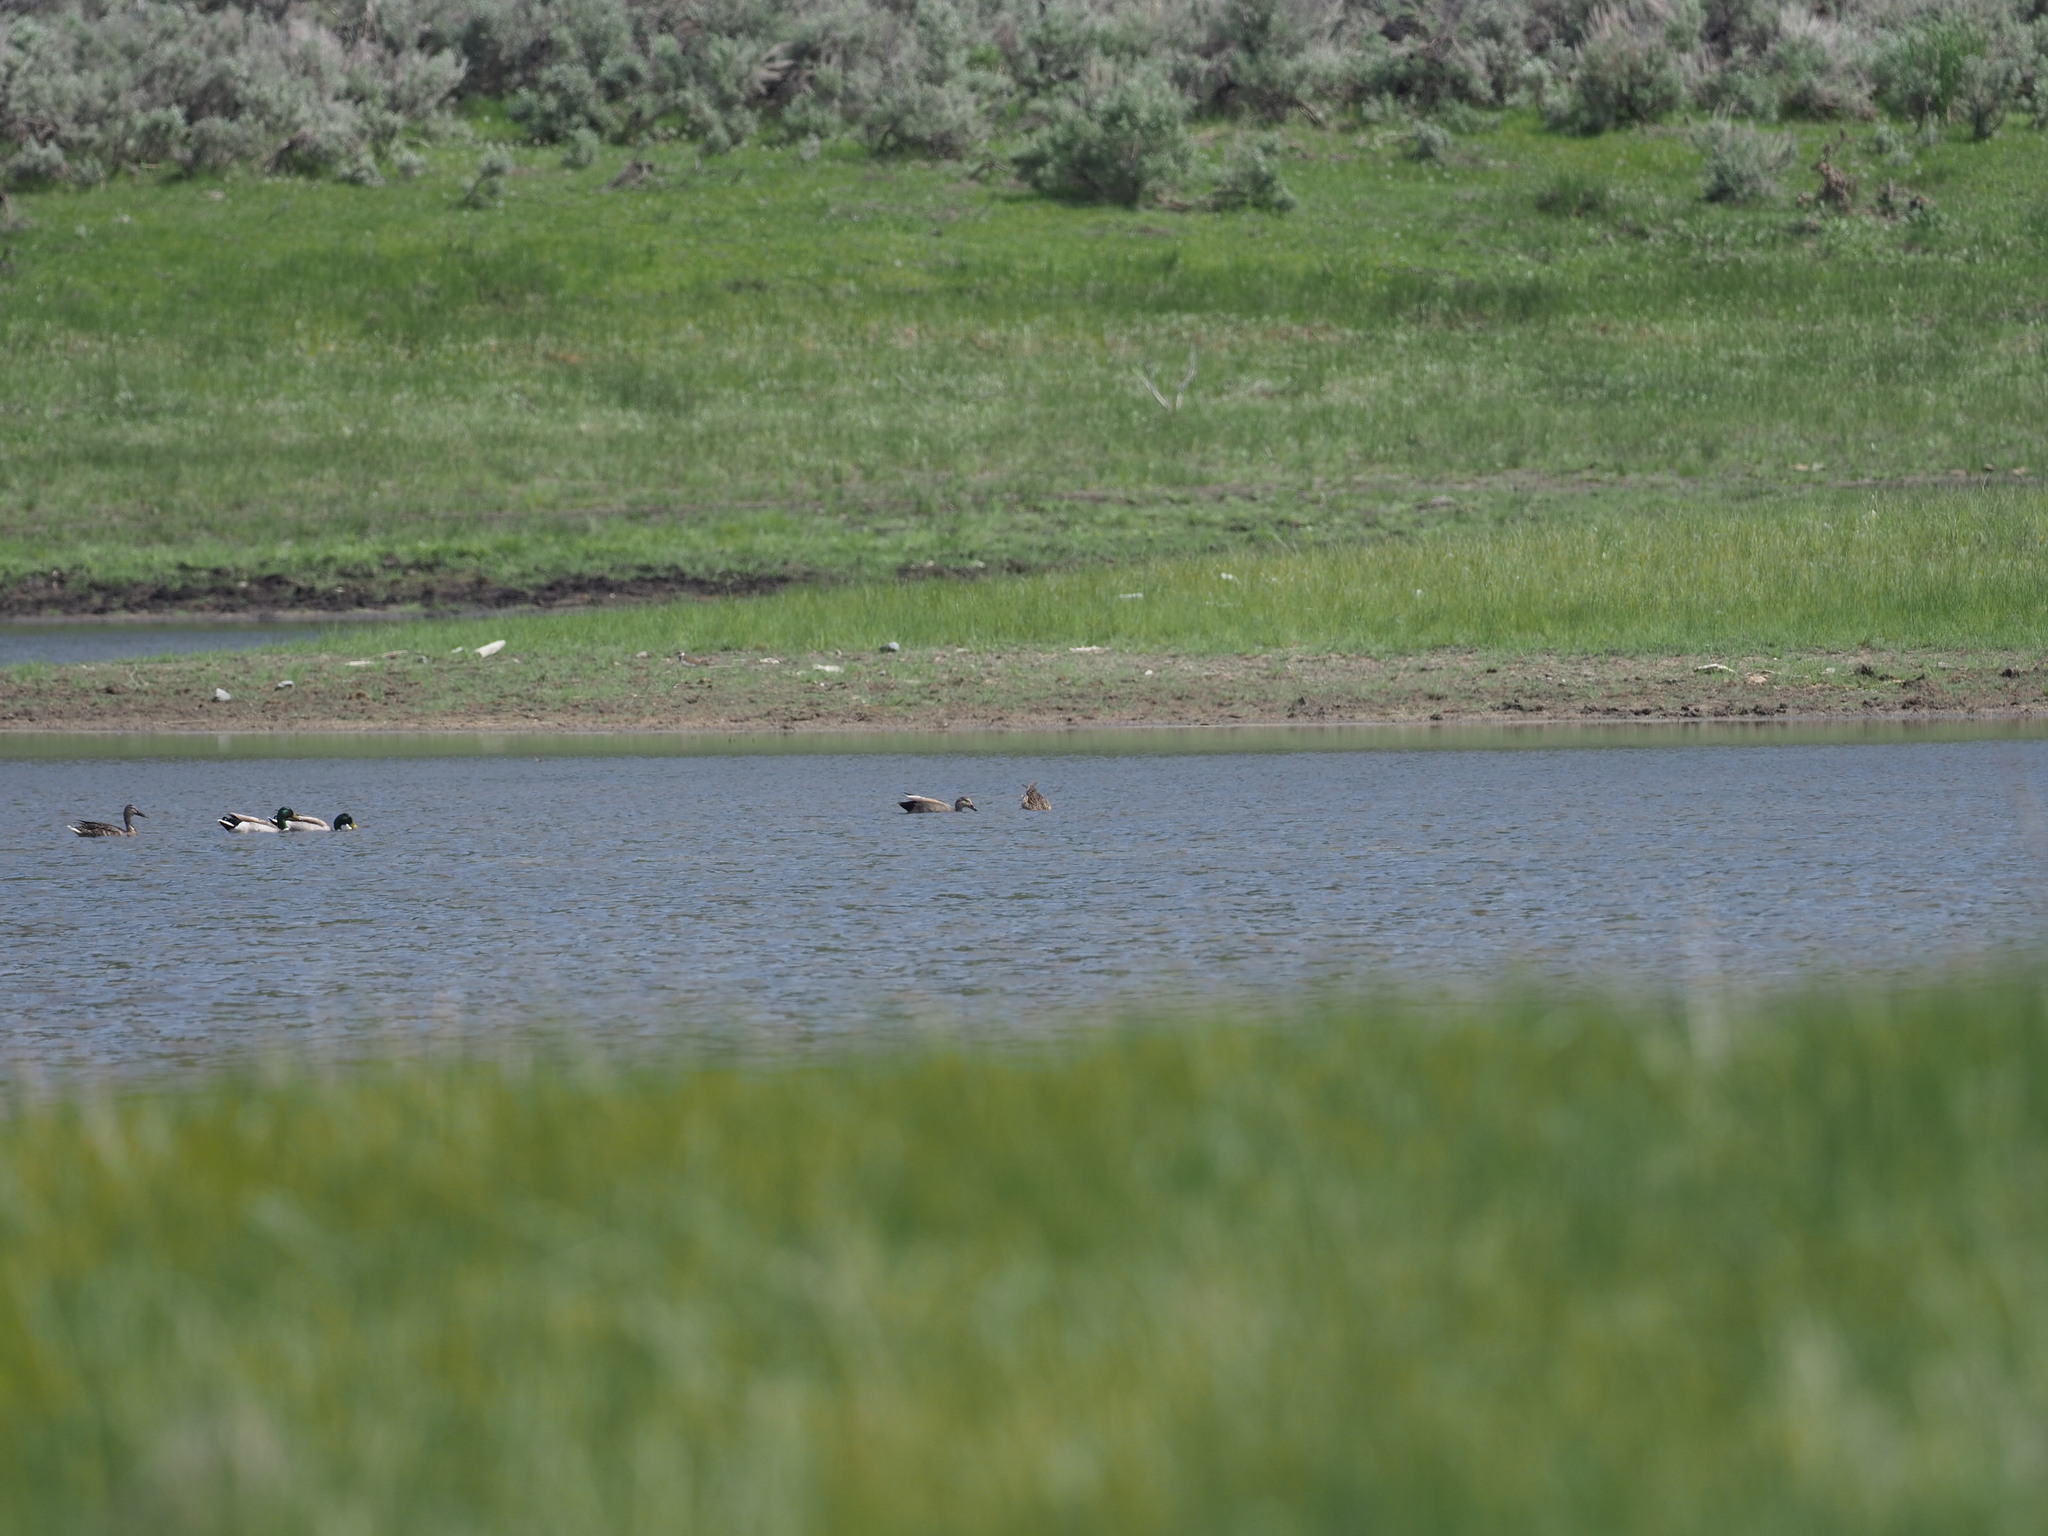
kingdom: Animalia
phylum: Chordata
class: Aves
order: Anseriformes
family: Anatidae
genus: Mareca
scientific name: Mareca strepera
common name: Gadwall
